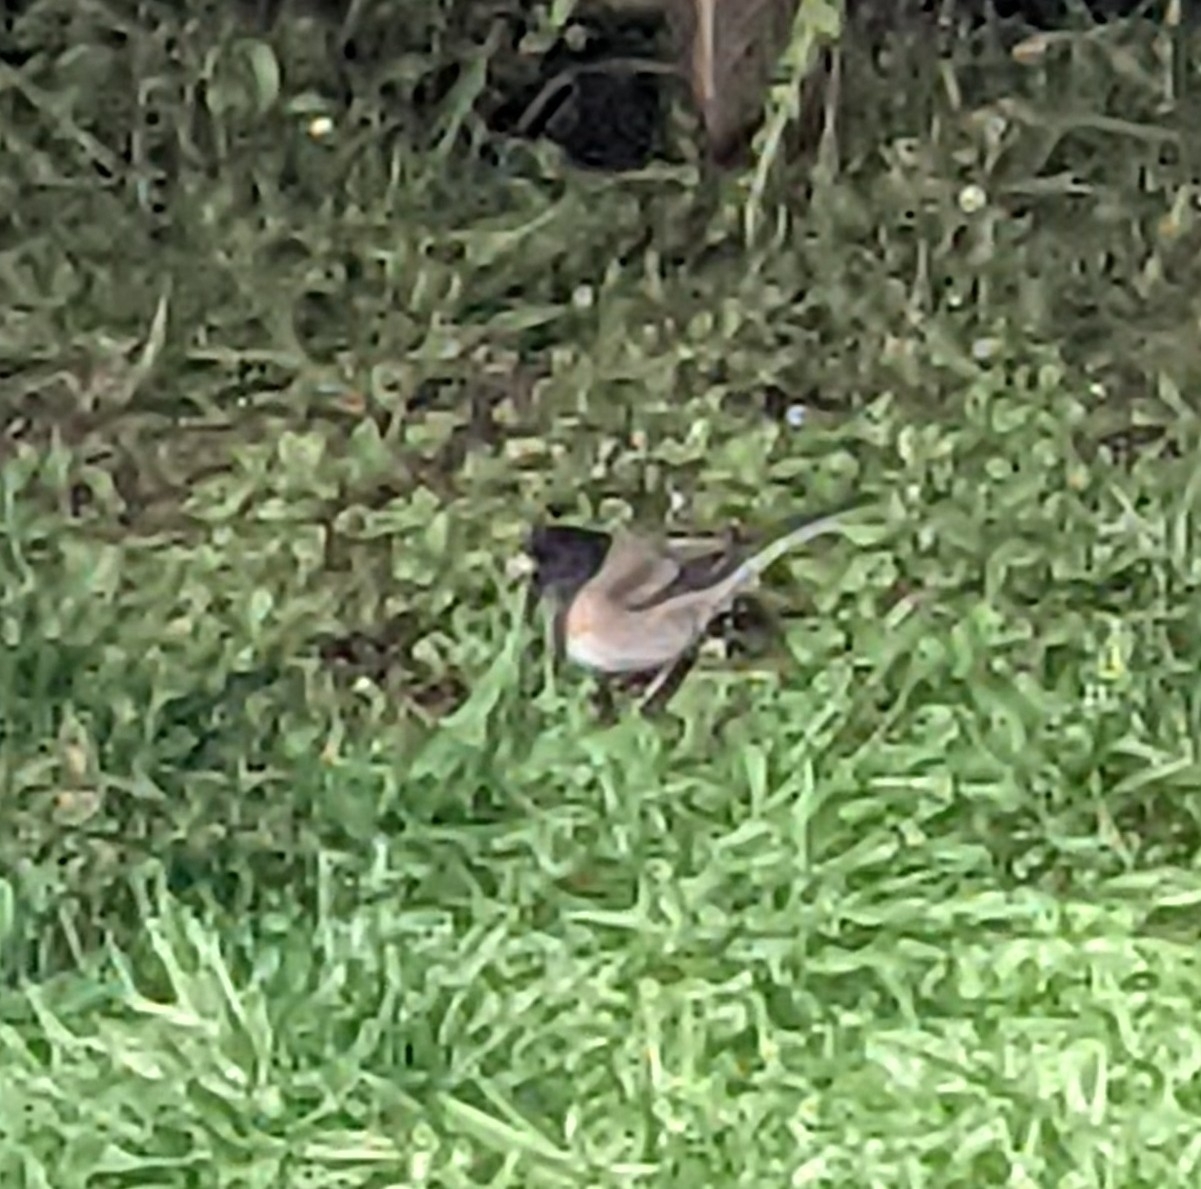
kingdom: Animalia
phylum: Chordata
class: Aves
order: Passeriformes
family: Passerellidae
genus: Junco
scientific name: Junco hyemalis
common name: Dark-eyed junco
